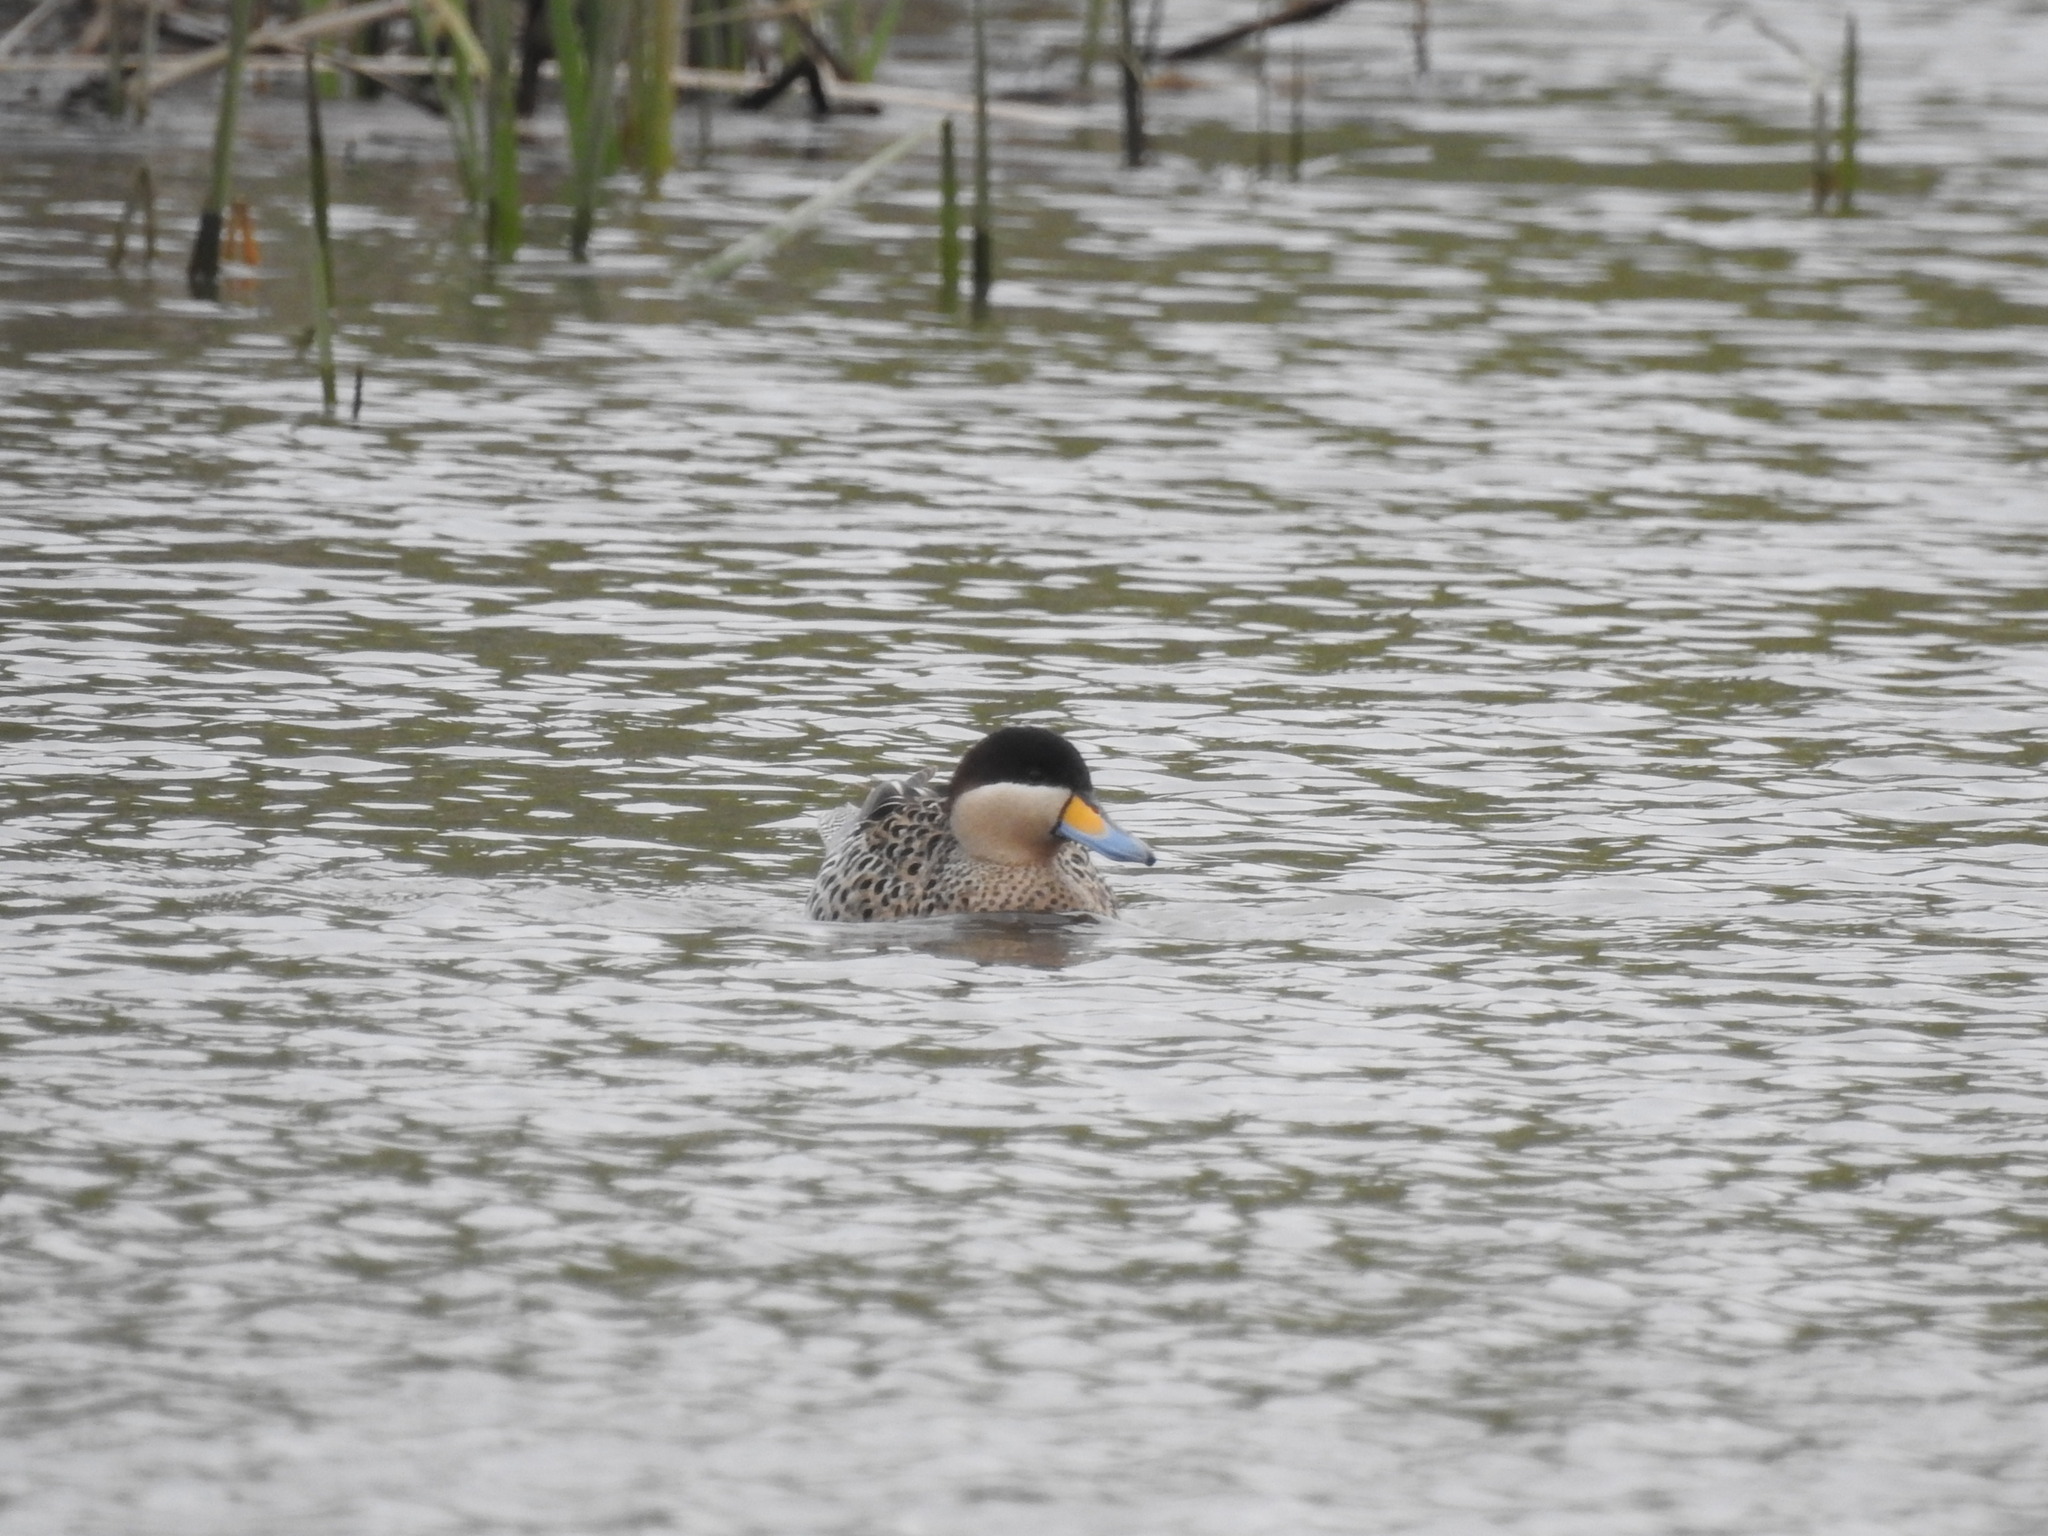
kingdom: Animalia
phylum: Chordata
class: Aves
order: Anseriformes
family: Anatidae
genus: Spatula
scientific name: Spatula versicolor
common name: Silver teal
